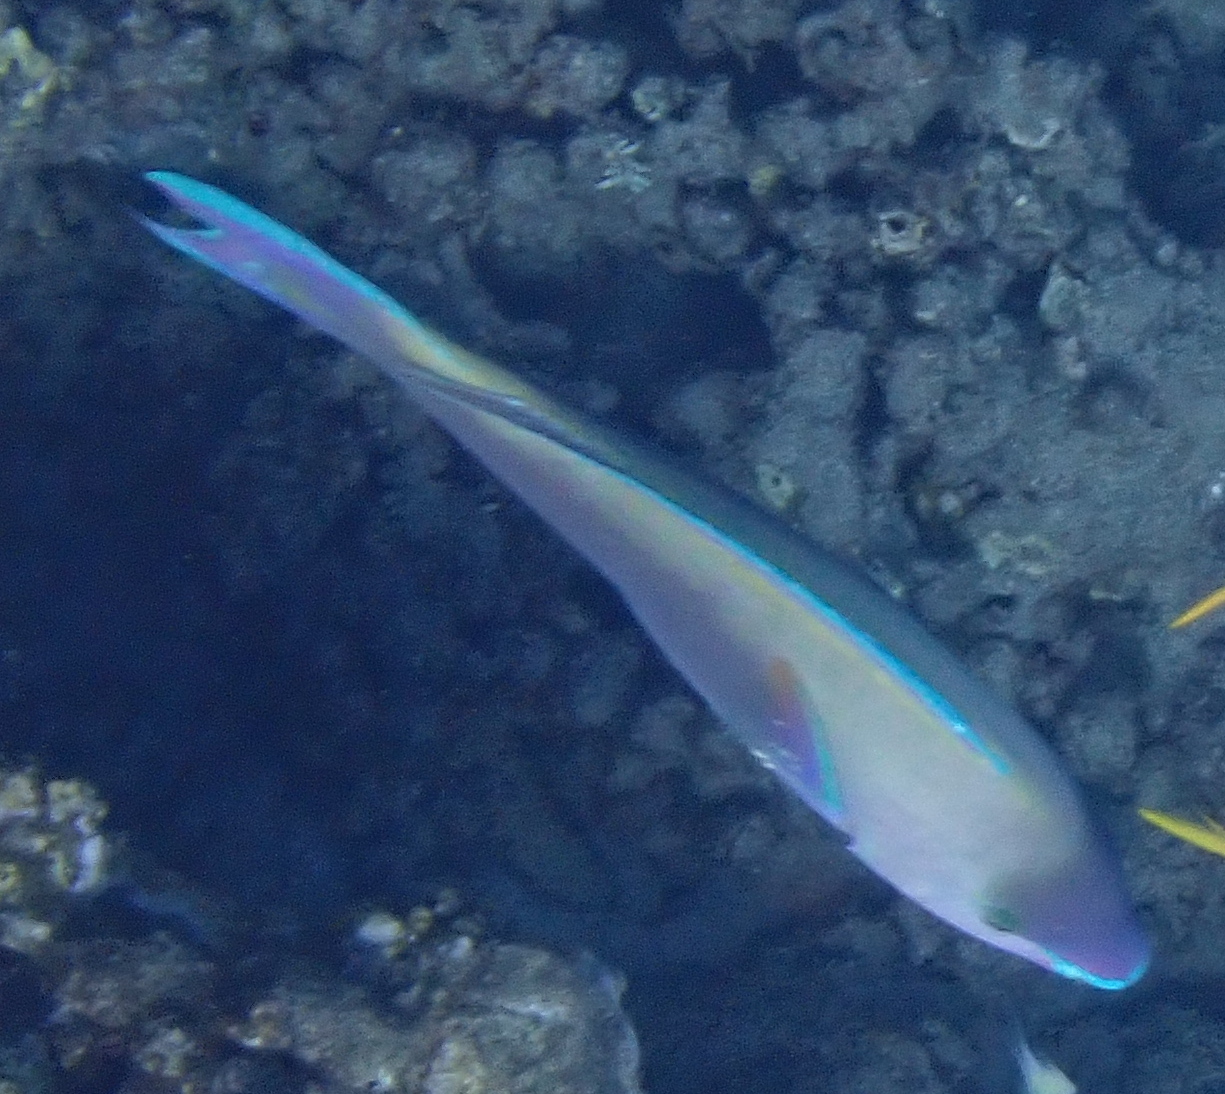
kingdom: Animalia
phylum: Chordata
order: Perciformes
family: Scaridae
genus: Scarus
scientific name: Scarus psittacus
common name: Palenose parrotfish
